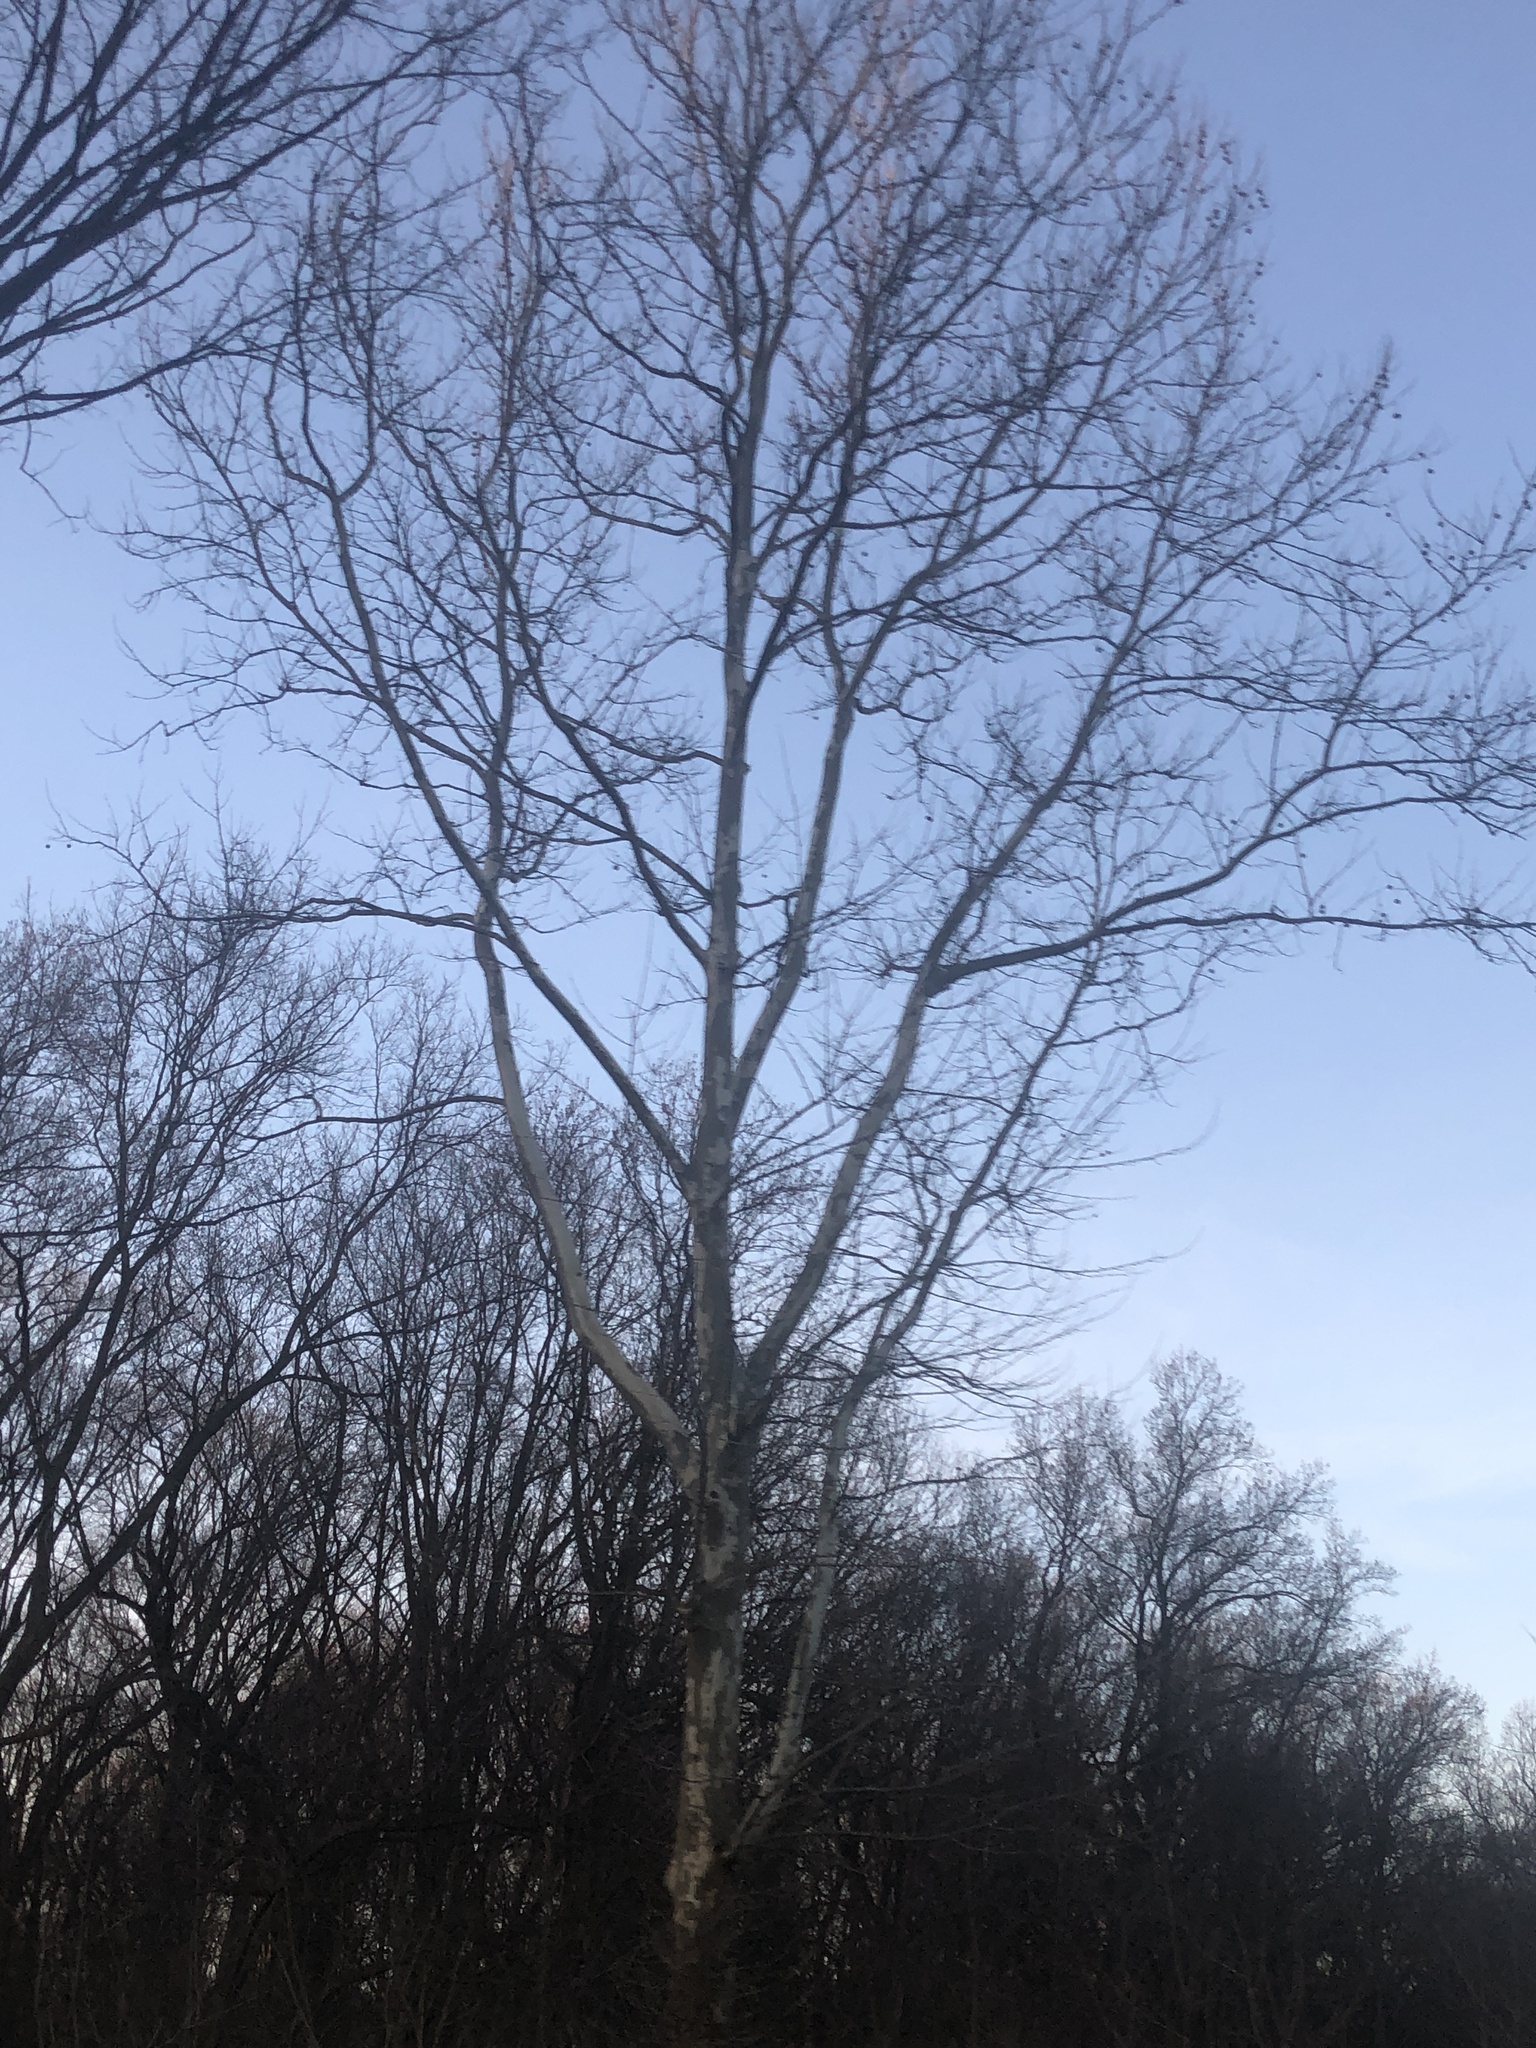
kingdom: Plantae
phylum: Tracheophyta
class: Magnoliopsida
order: Proteales
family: Platanaceae
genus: Platanus
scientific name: Platanus occidentalis
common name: American sycamore
